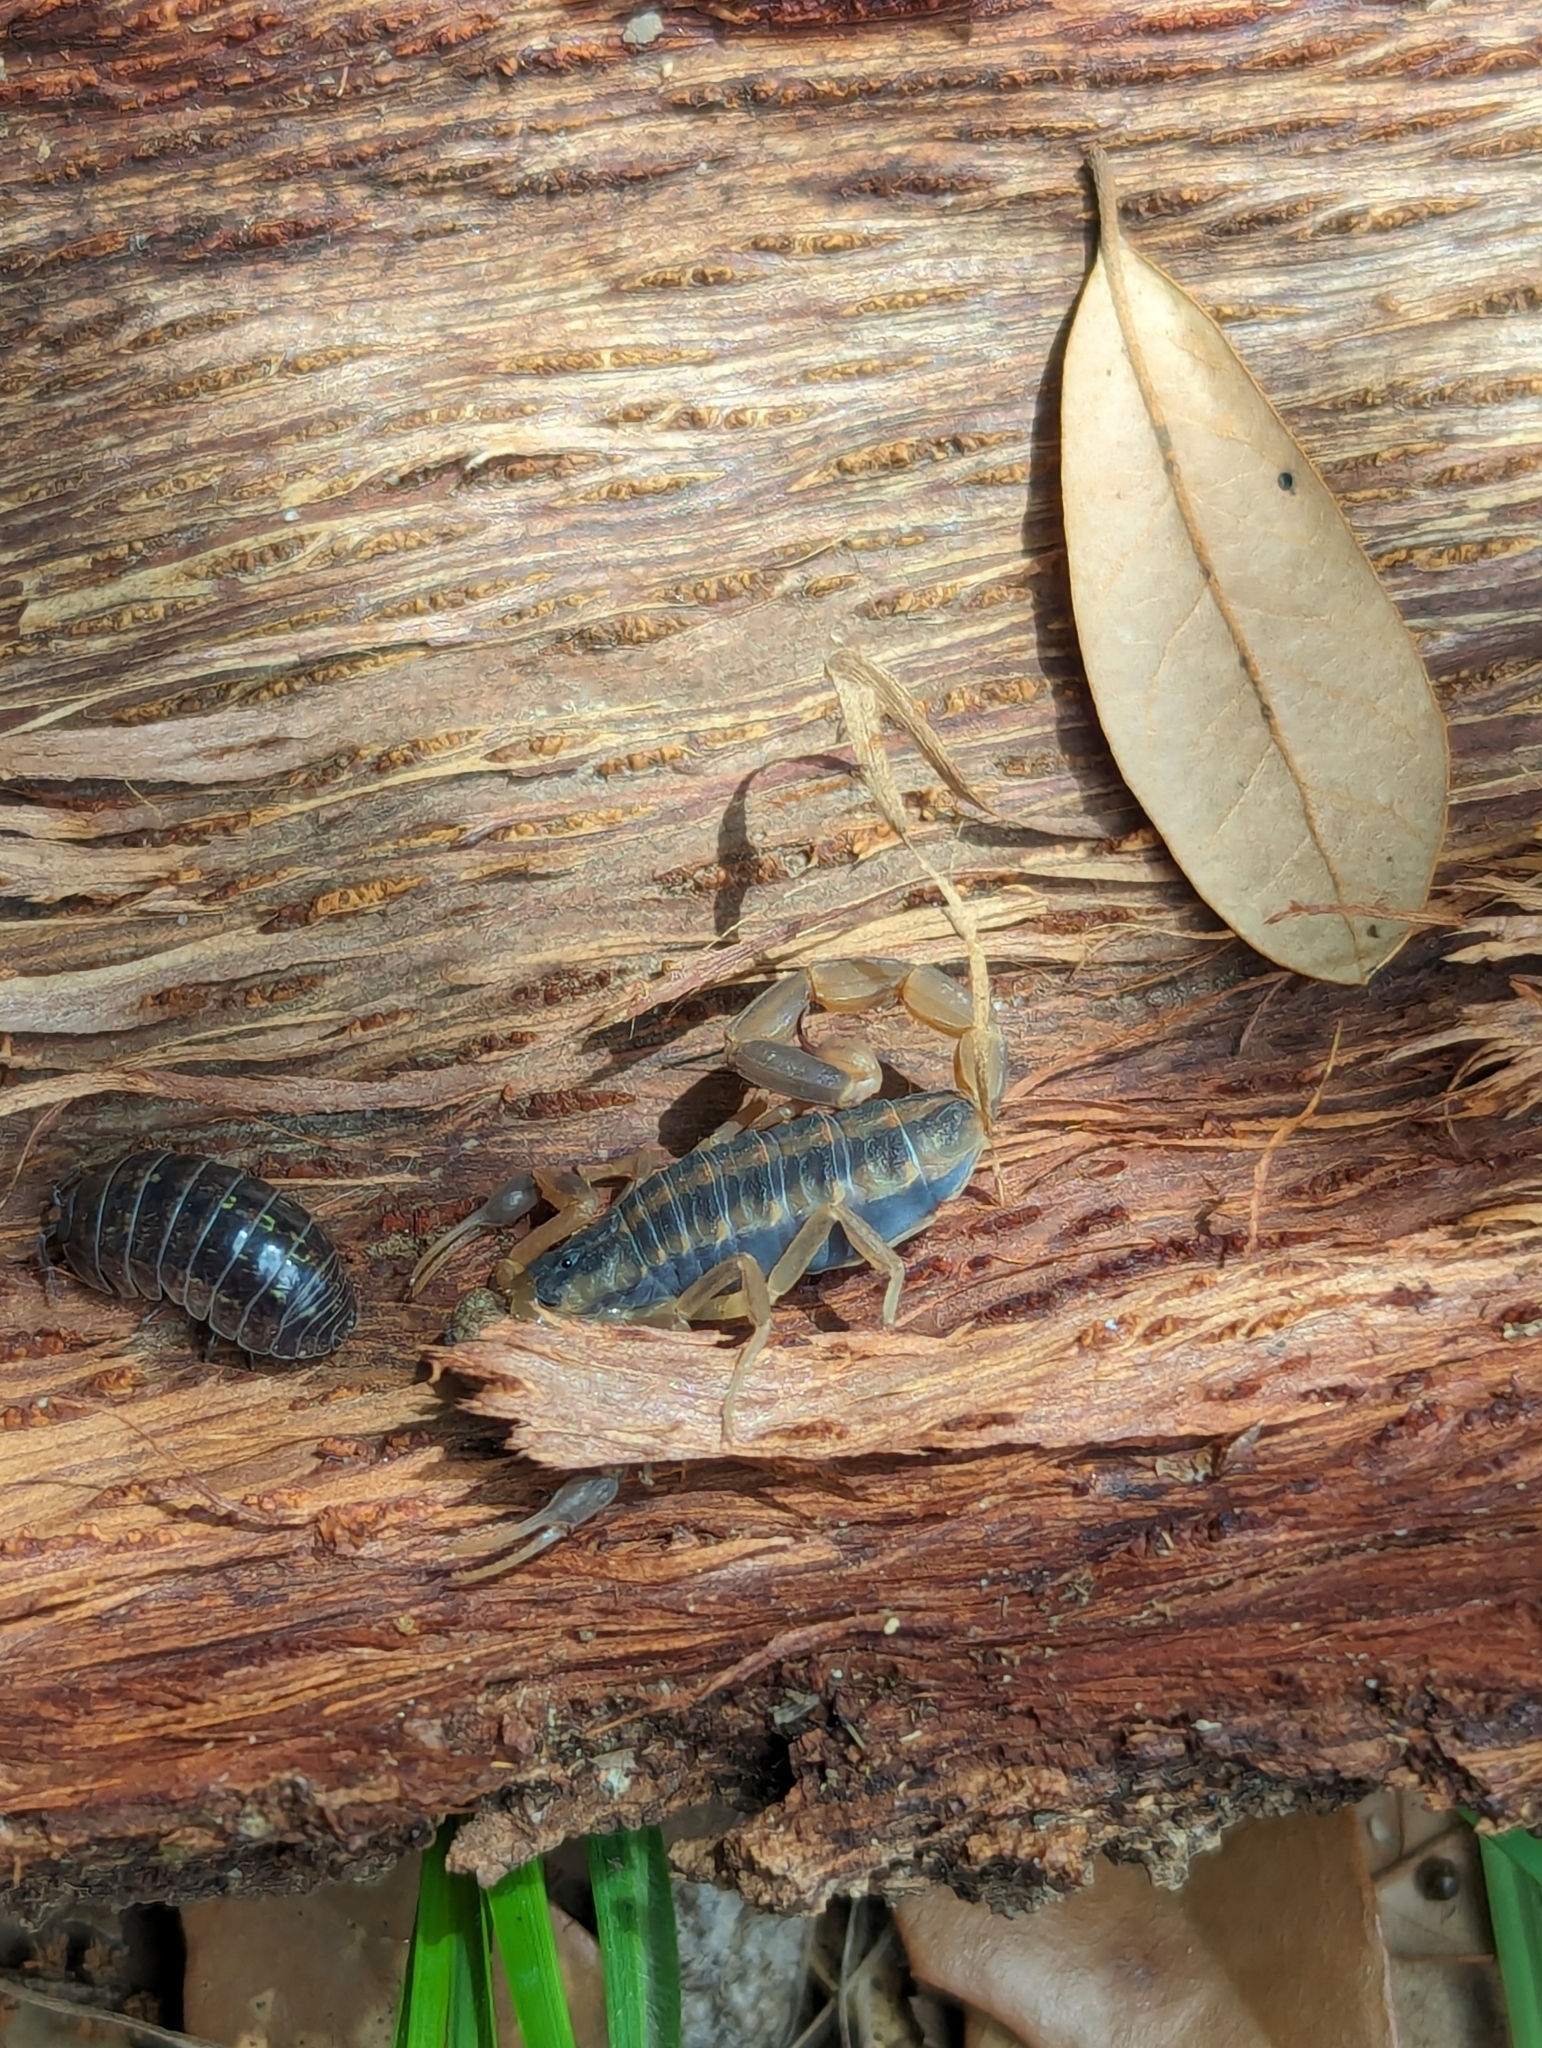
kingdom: Animalia
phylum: Arthropoda
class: Arachnida
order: Scorpiones
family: Buthidae
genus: Centruroides
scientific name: Centruroides vittatus
